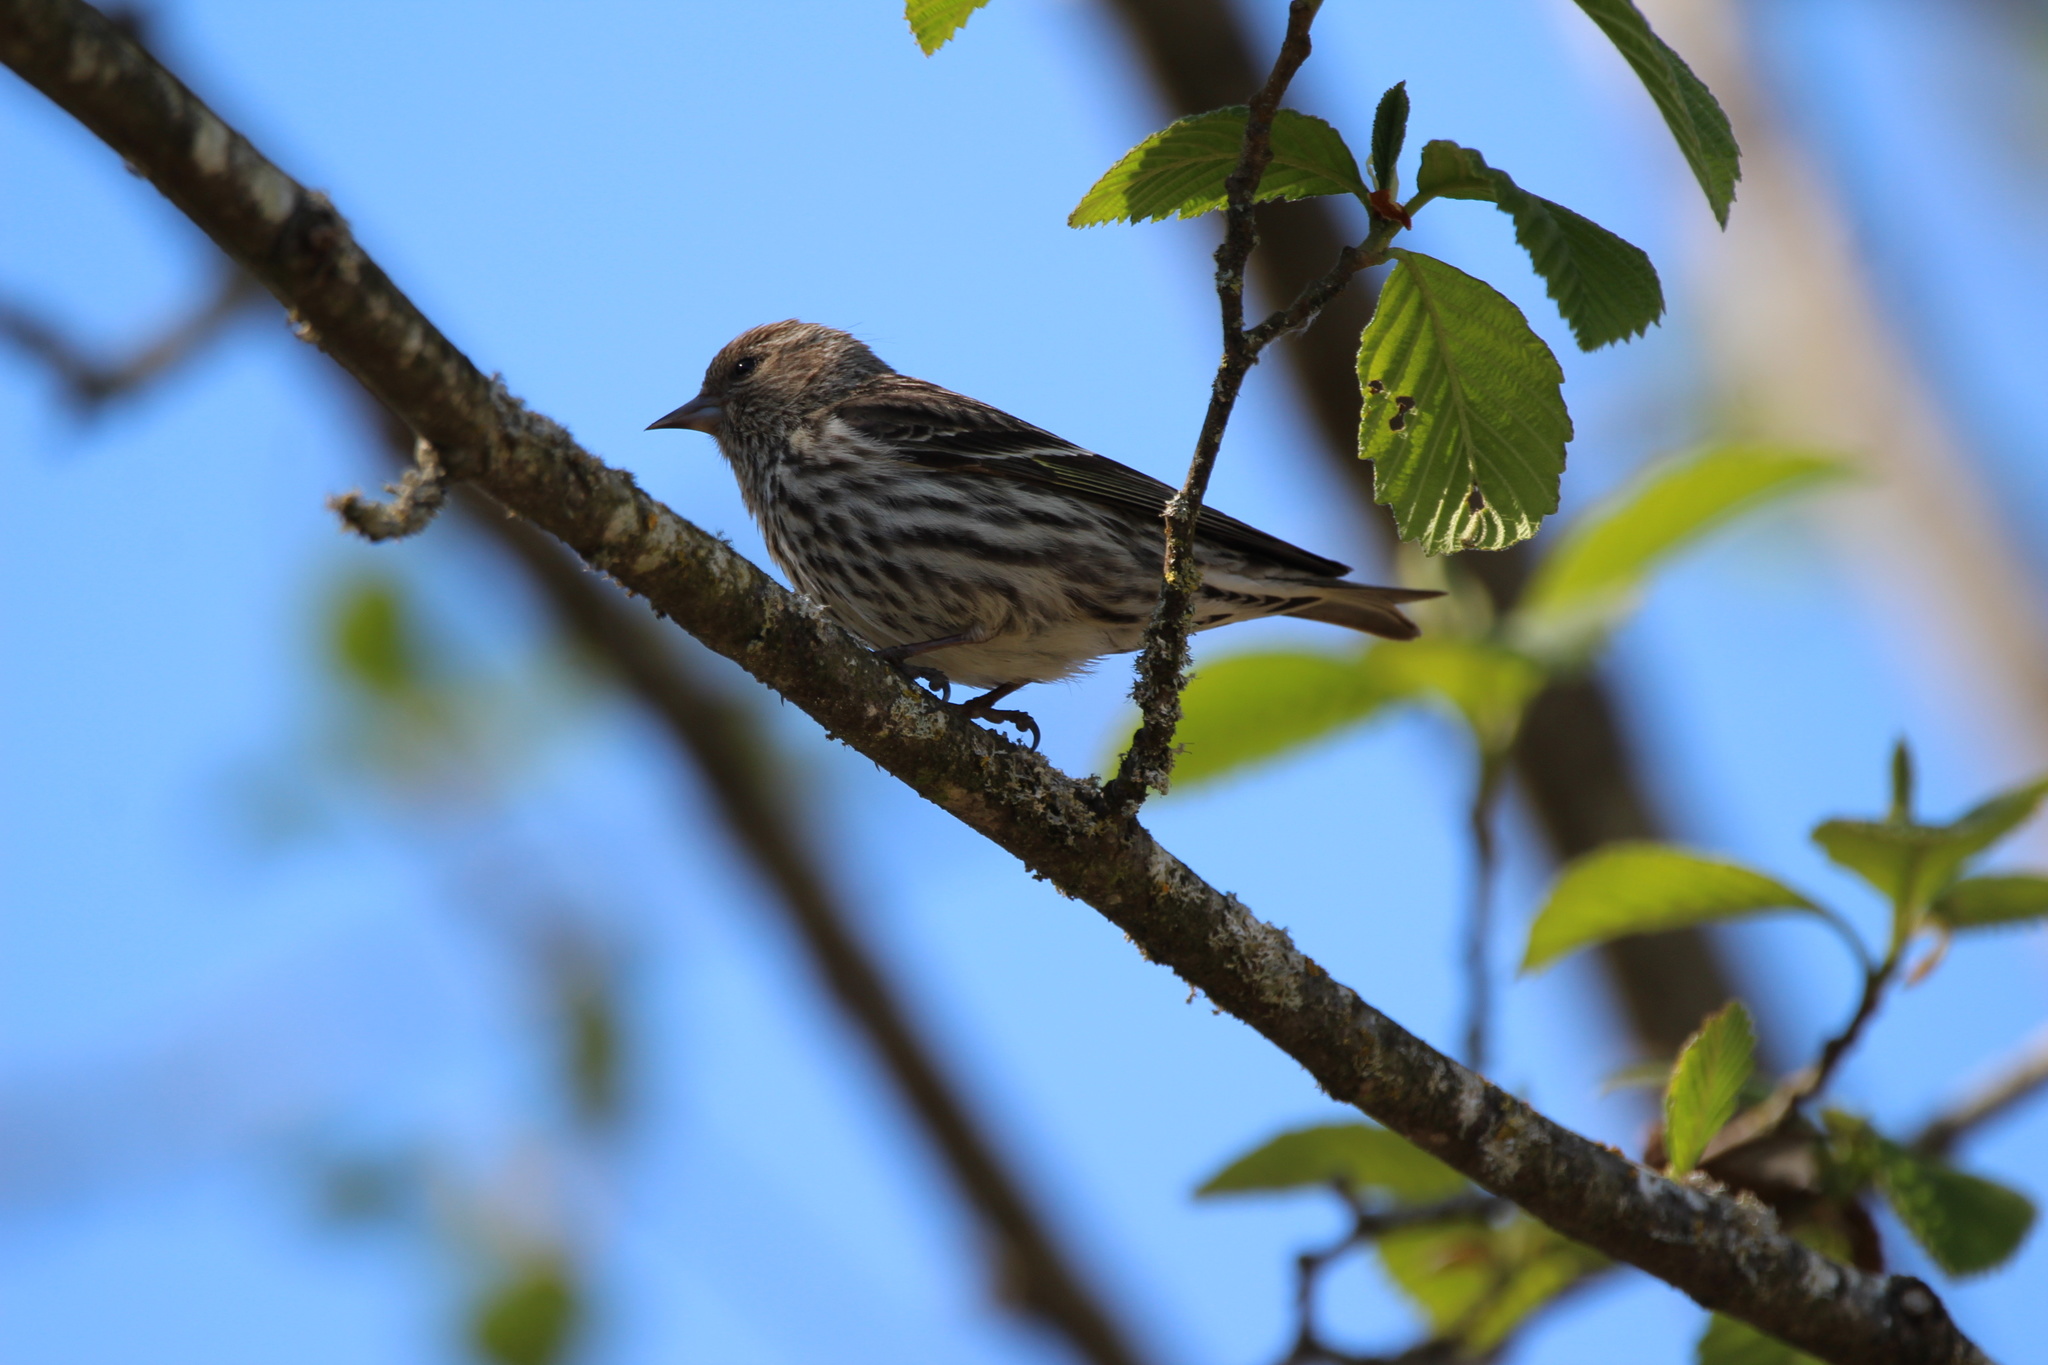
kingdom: Animalia
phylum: Chordata
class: Aves
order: Passeriformes
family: Fringillidae
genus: Spinus
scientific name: Spinus pinus
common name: Pine siskin
